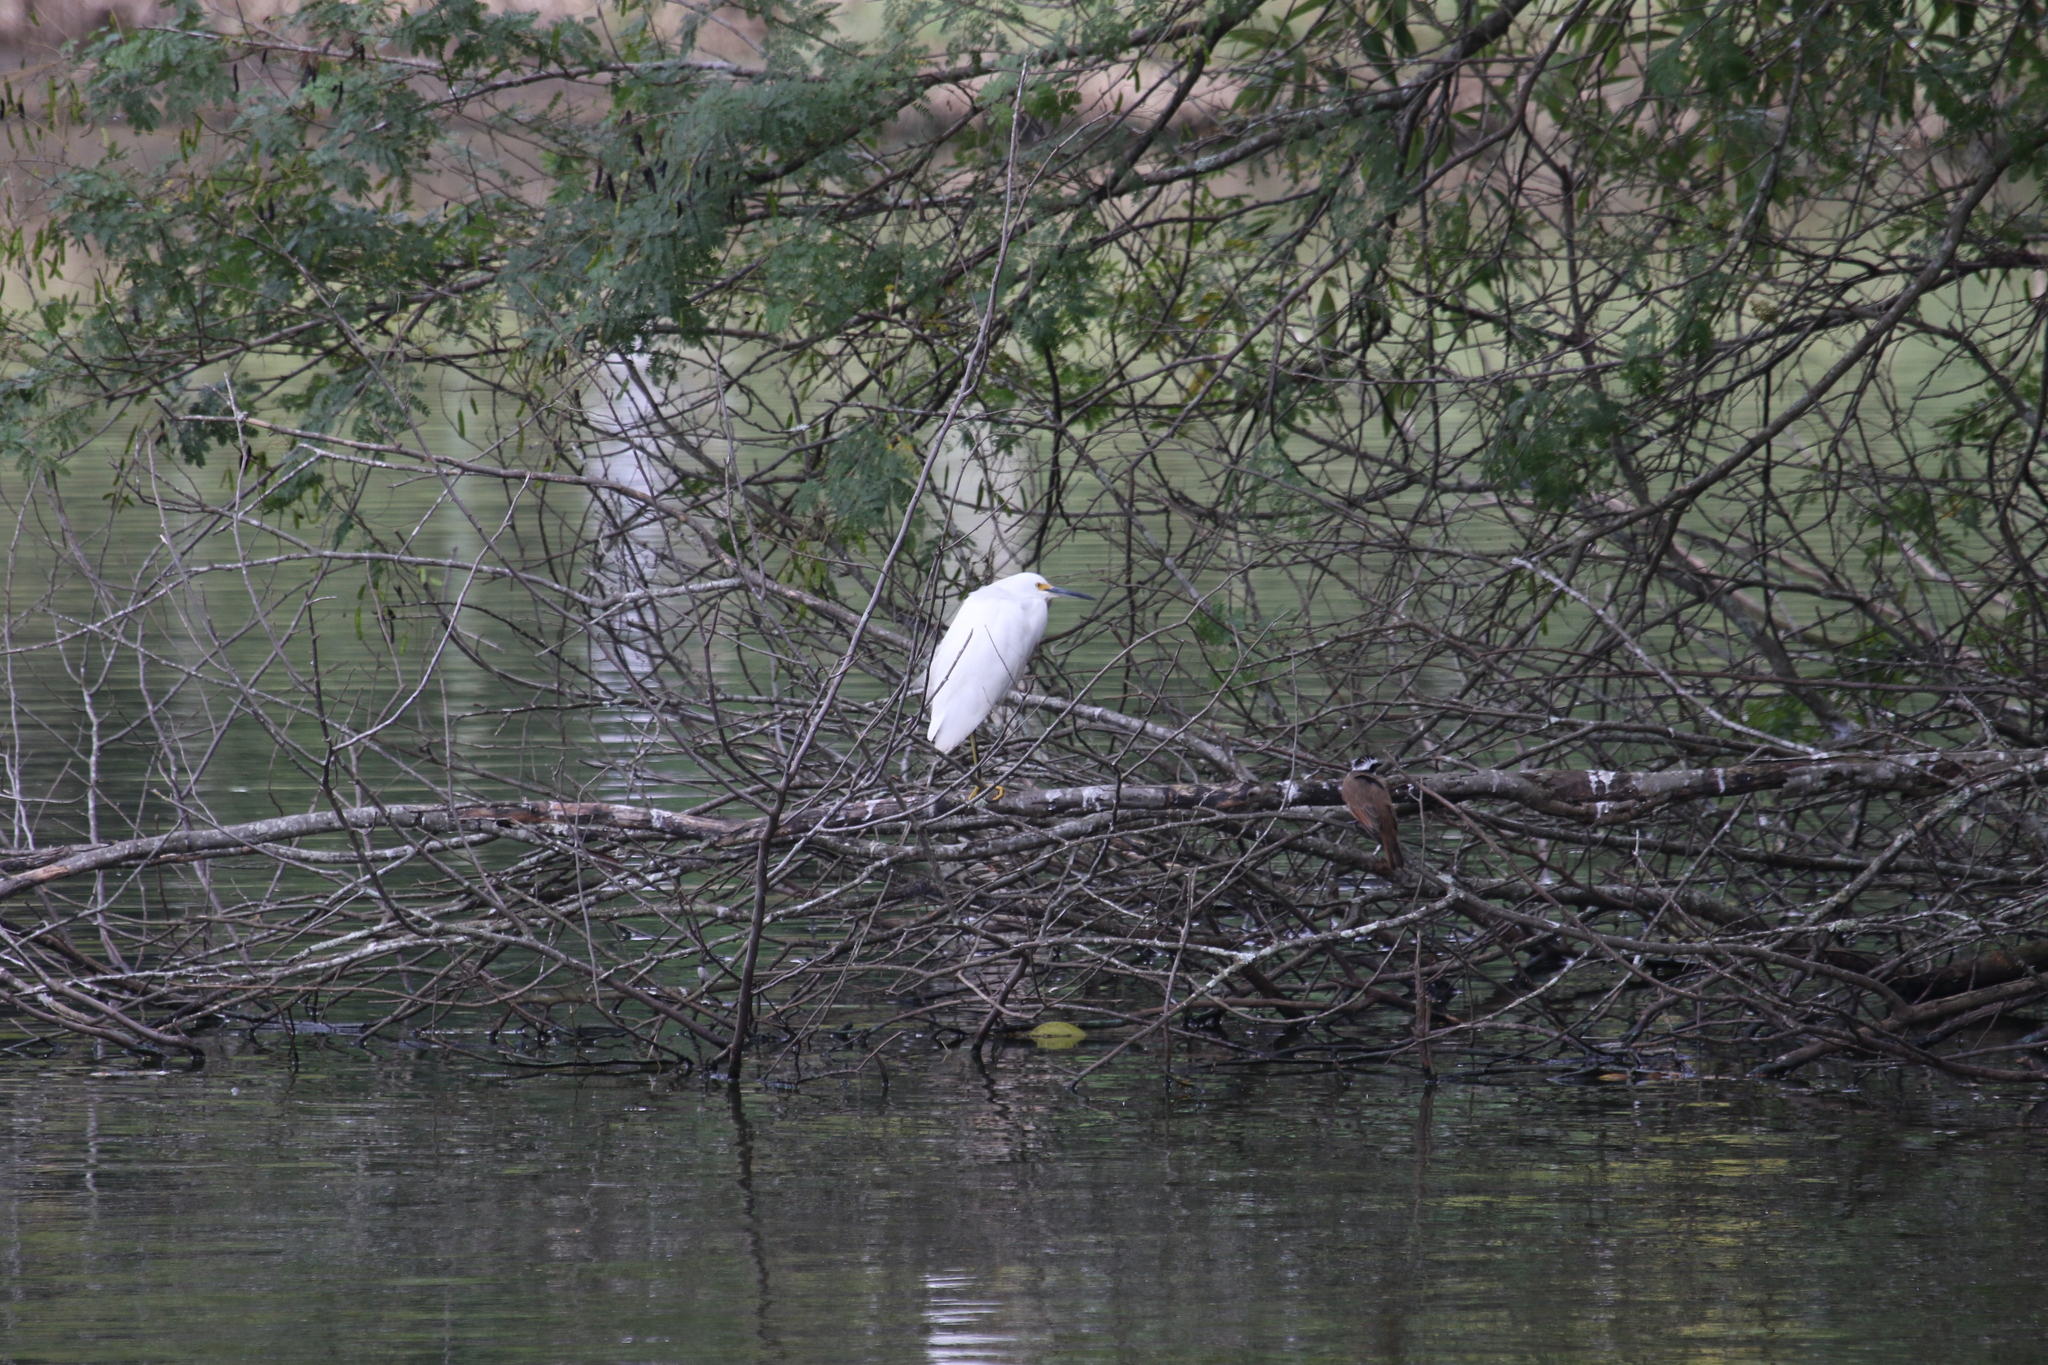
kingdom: Animalia
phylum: Chordata
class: Aves
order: Pelecaniformes
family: Ardeidae
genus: Egretta
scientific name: Egretta thula
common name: Snowy egret
